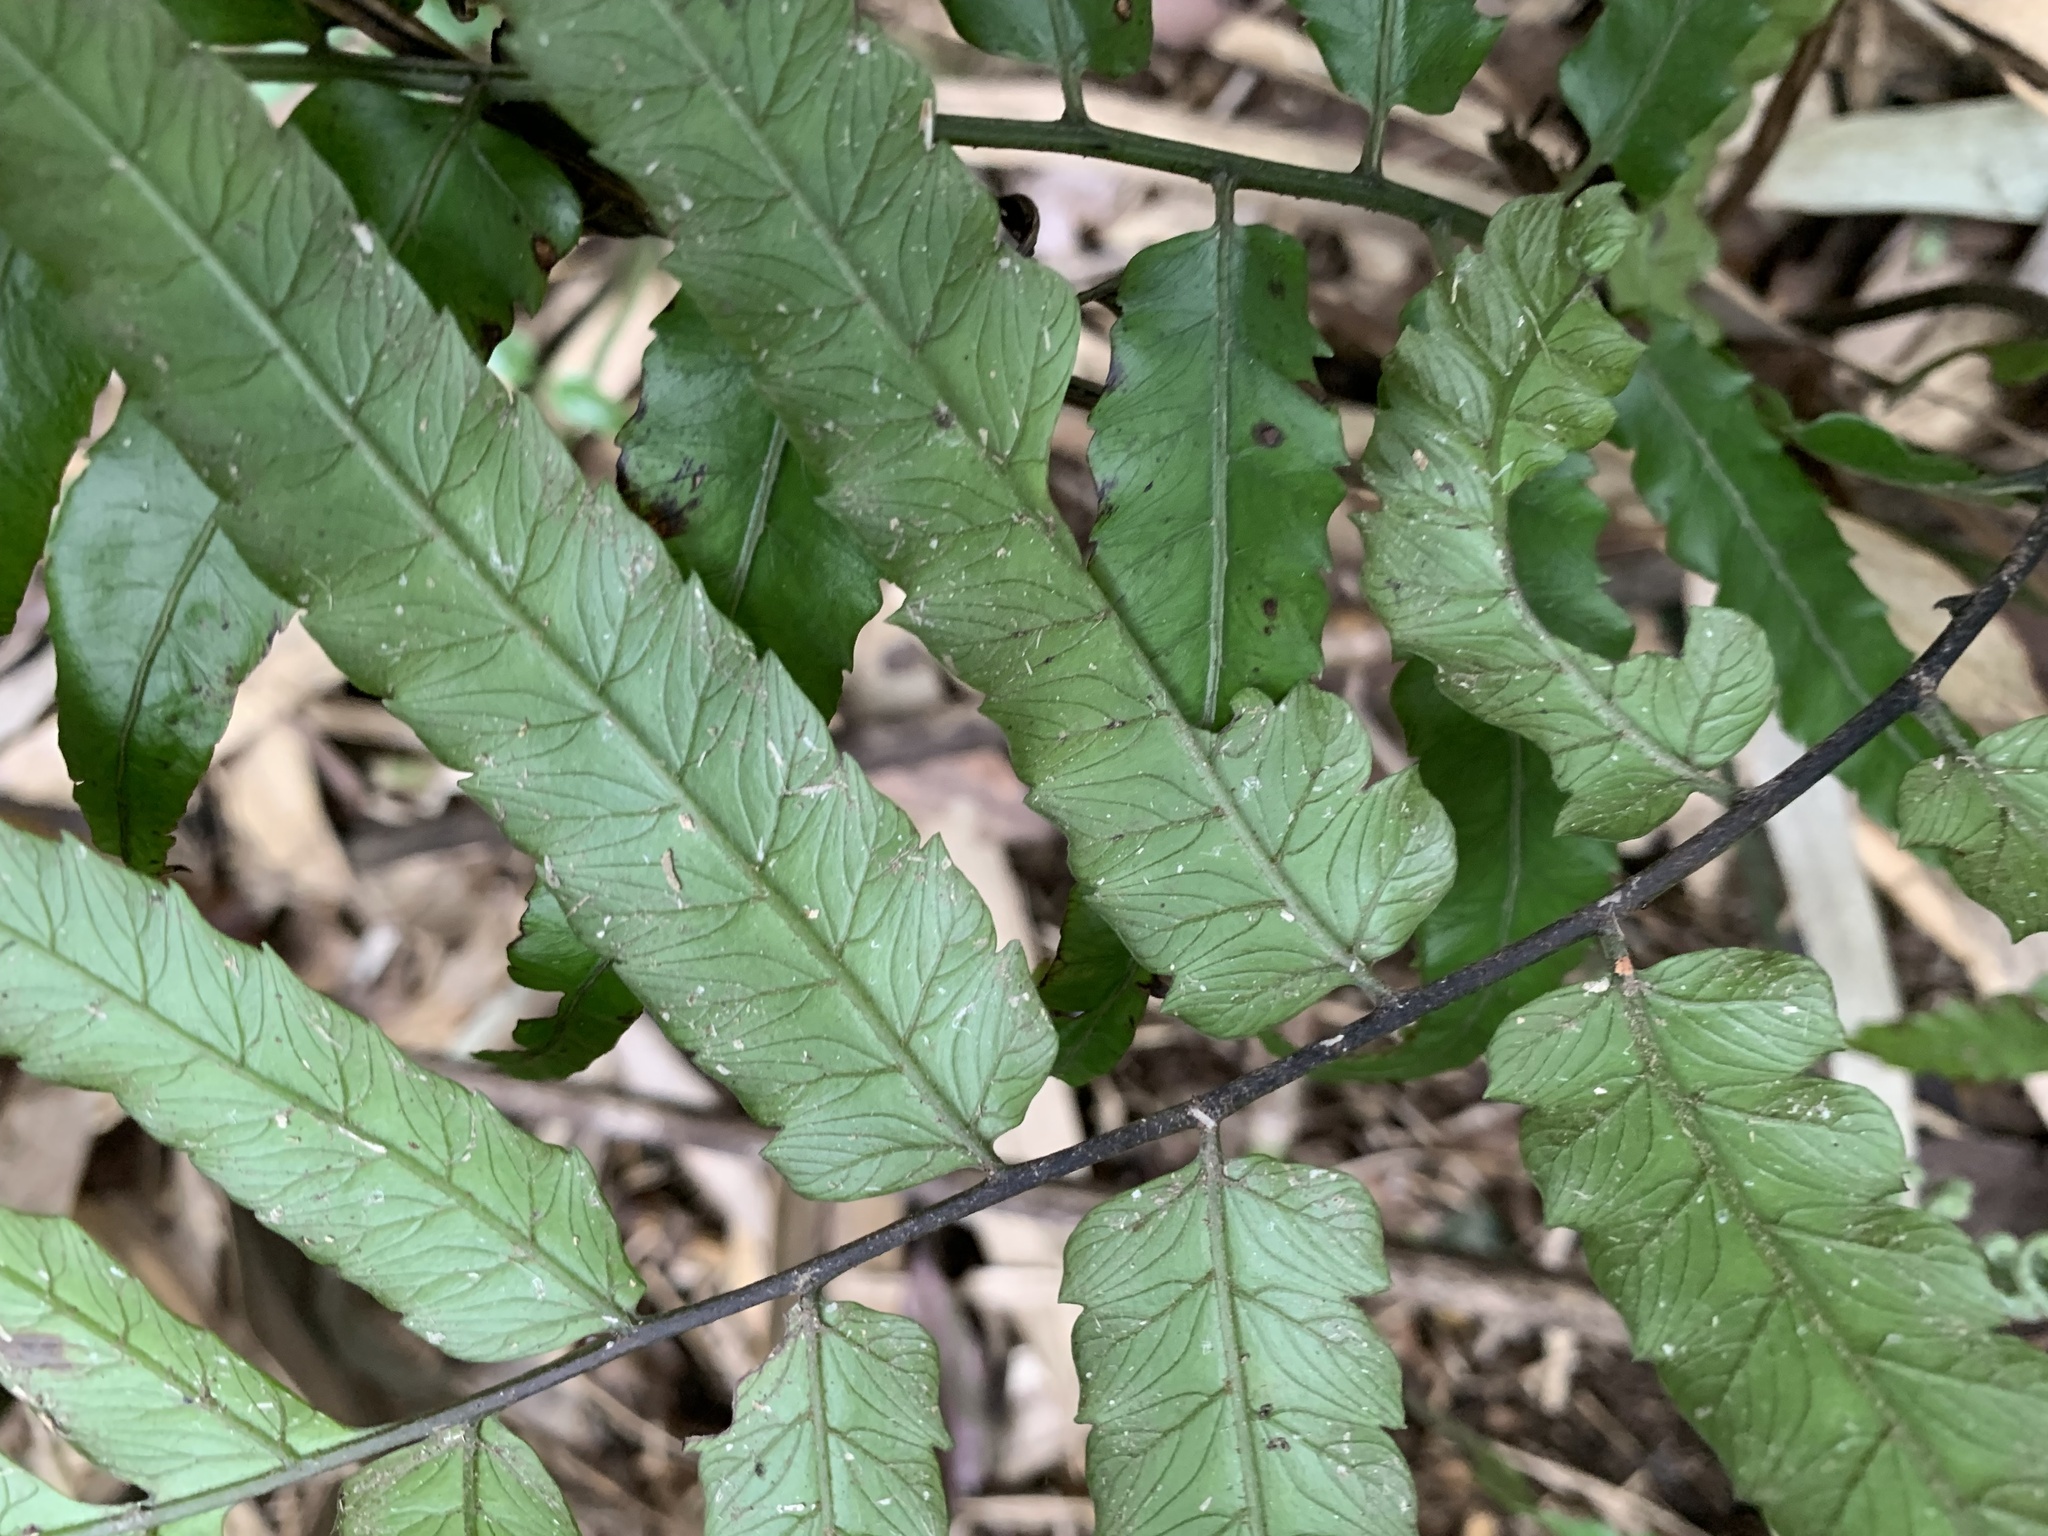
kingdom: Plantae
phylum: Tracheophyta
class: Polypodiopsida
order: Polypodiales
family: Athyriaceae
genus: Diplazium
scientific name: Diplazium dilatatum
